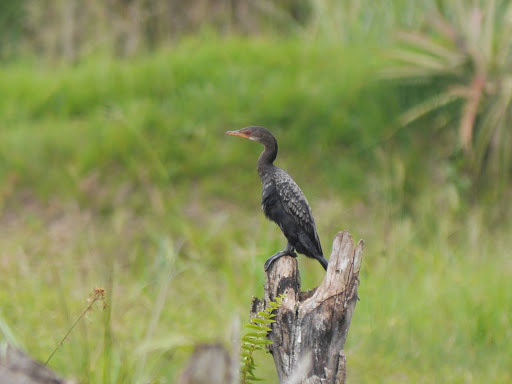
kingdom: Animalia
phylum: Chordata
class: Aves
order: Suliformes
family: Phalacrocoracidae
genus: Microcarbo
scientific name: Microcarbo africanus
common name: Long-tailed cormorant
